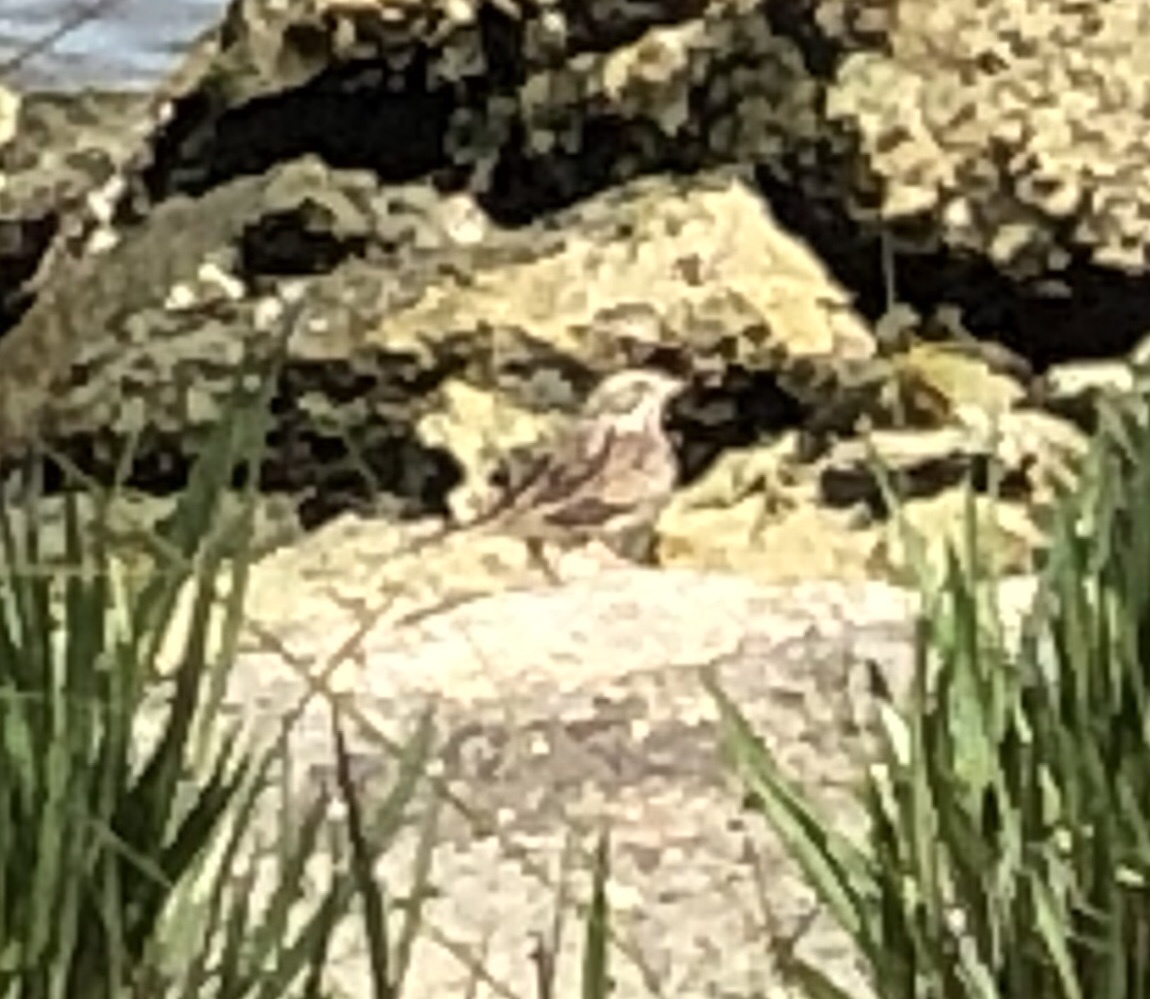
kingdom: Animalia
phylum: Chordata
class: Aves
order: Passeriformes
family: Passerellidae
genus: Passerculus
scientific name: Passerculus sandwichensis
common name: Savannah sparrow
